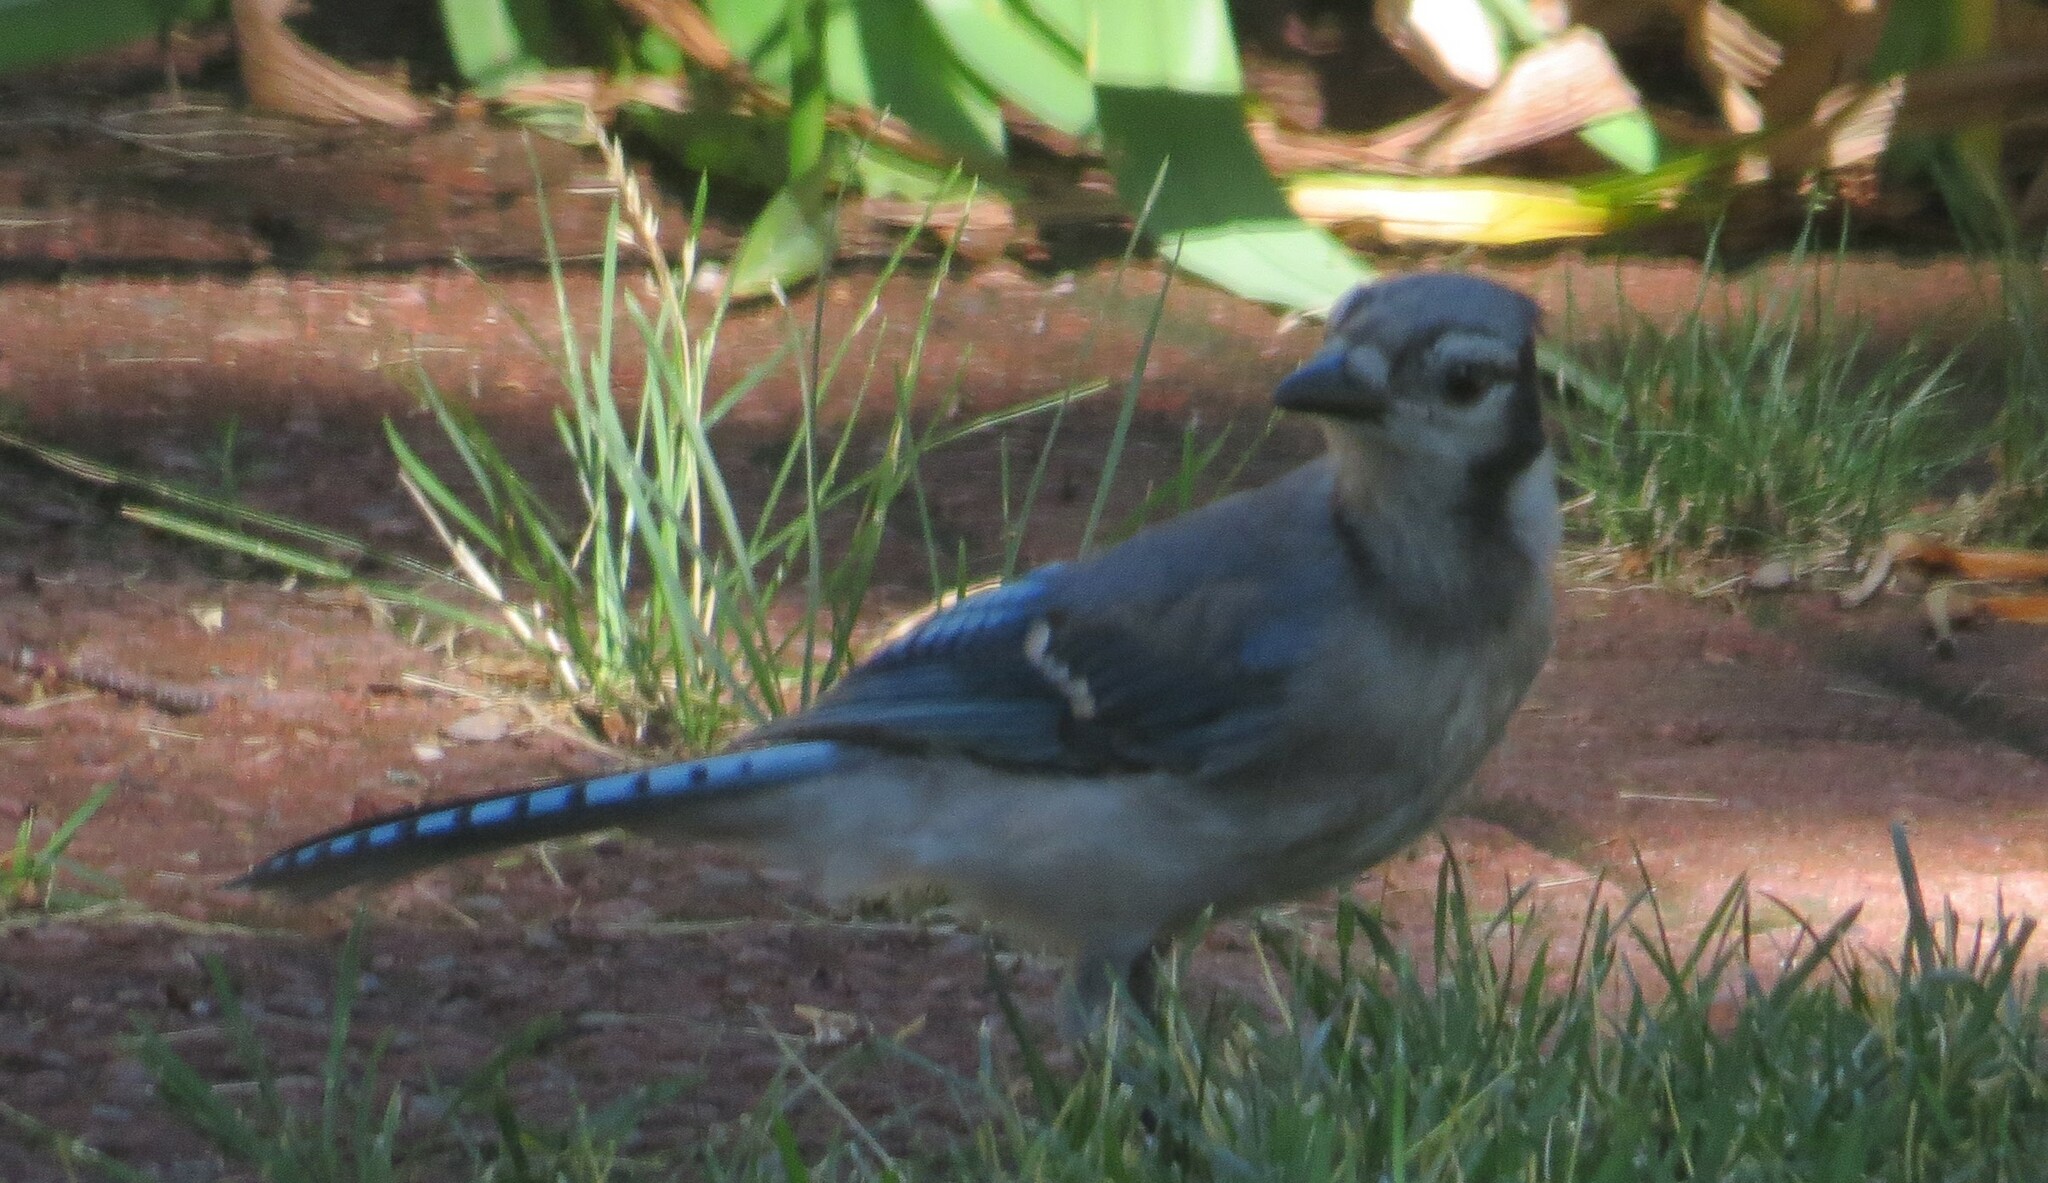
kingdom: Animalia
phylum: Chordata
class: Aves
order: Passeriformes
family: Corvidae
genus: Cyanocitta
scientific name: Cyanocitta cristata
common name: Blue jay
